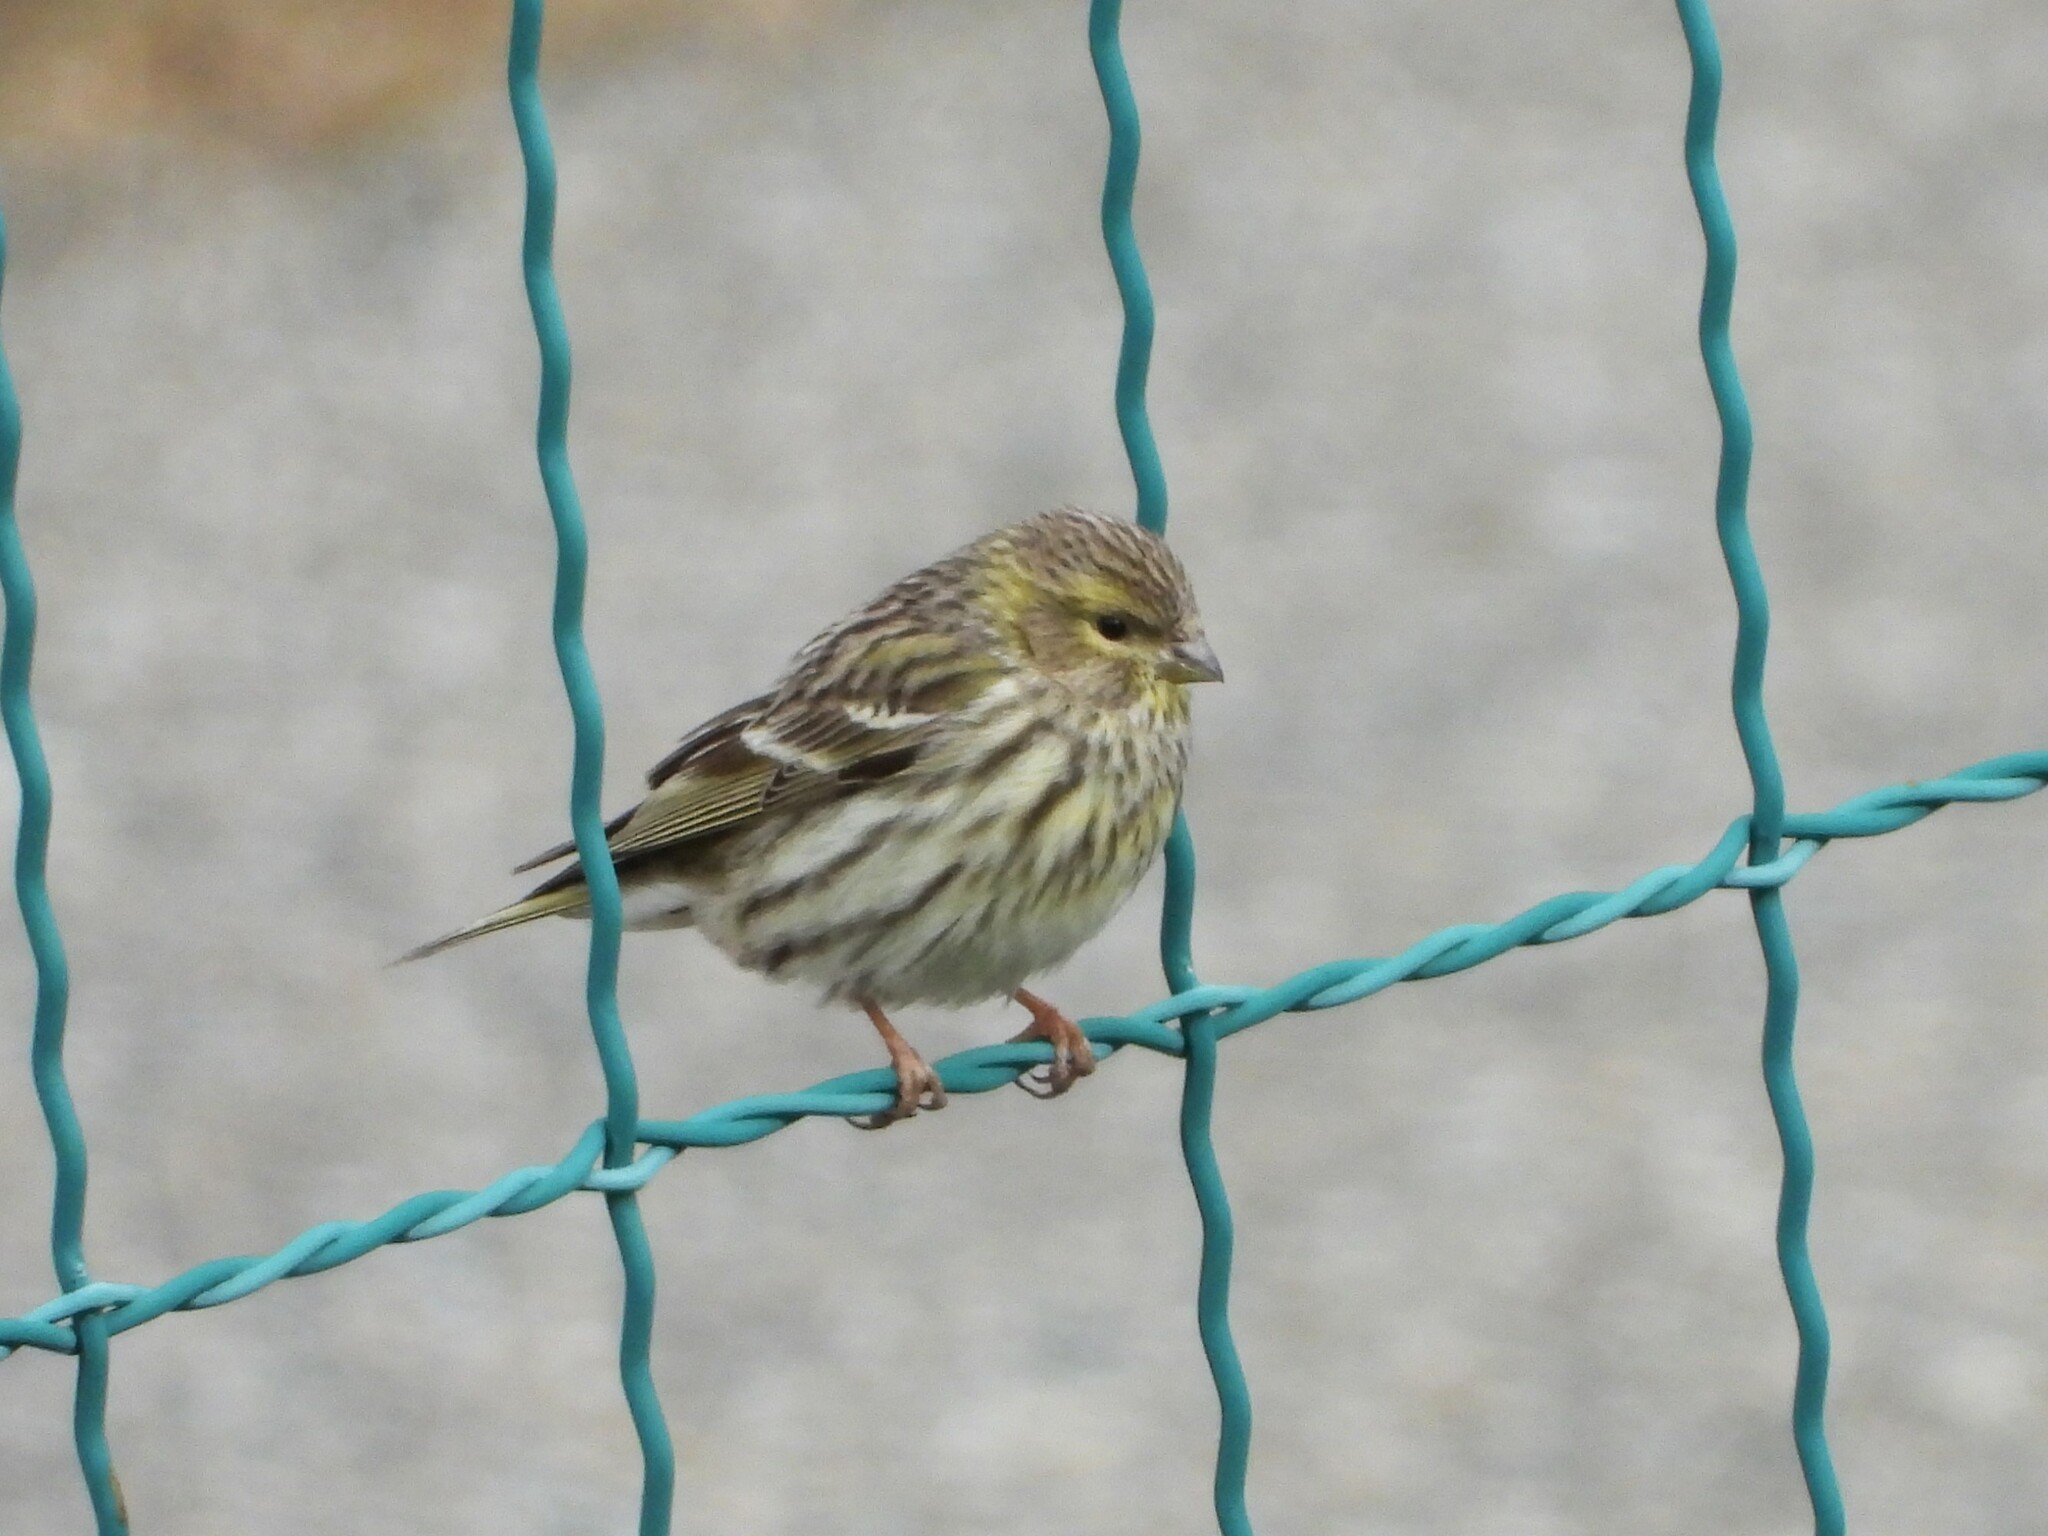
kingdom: Animalia
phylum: Chordata
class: Aves
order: Passeriformes
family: Fringillidae
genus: Serinus
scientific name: Serinus serinus
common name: European serin
